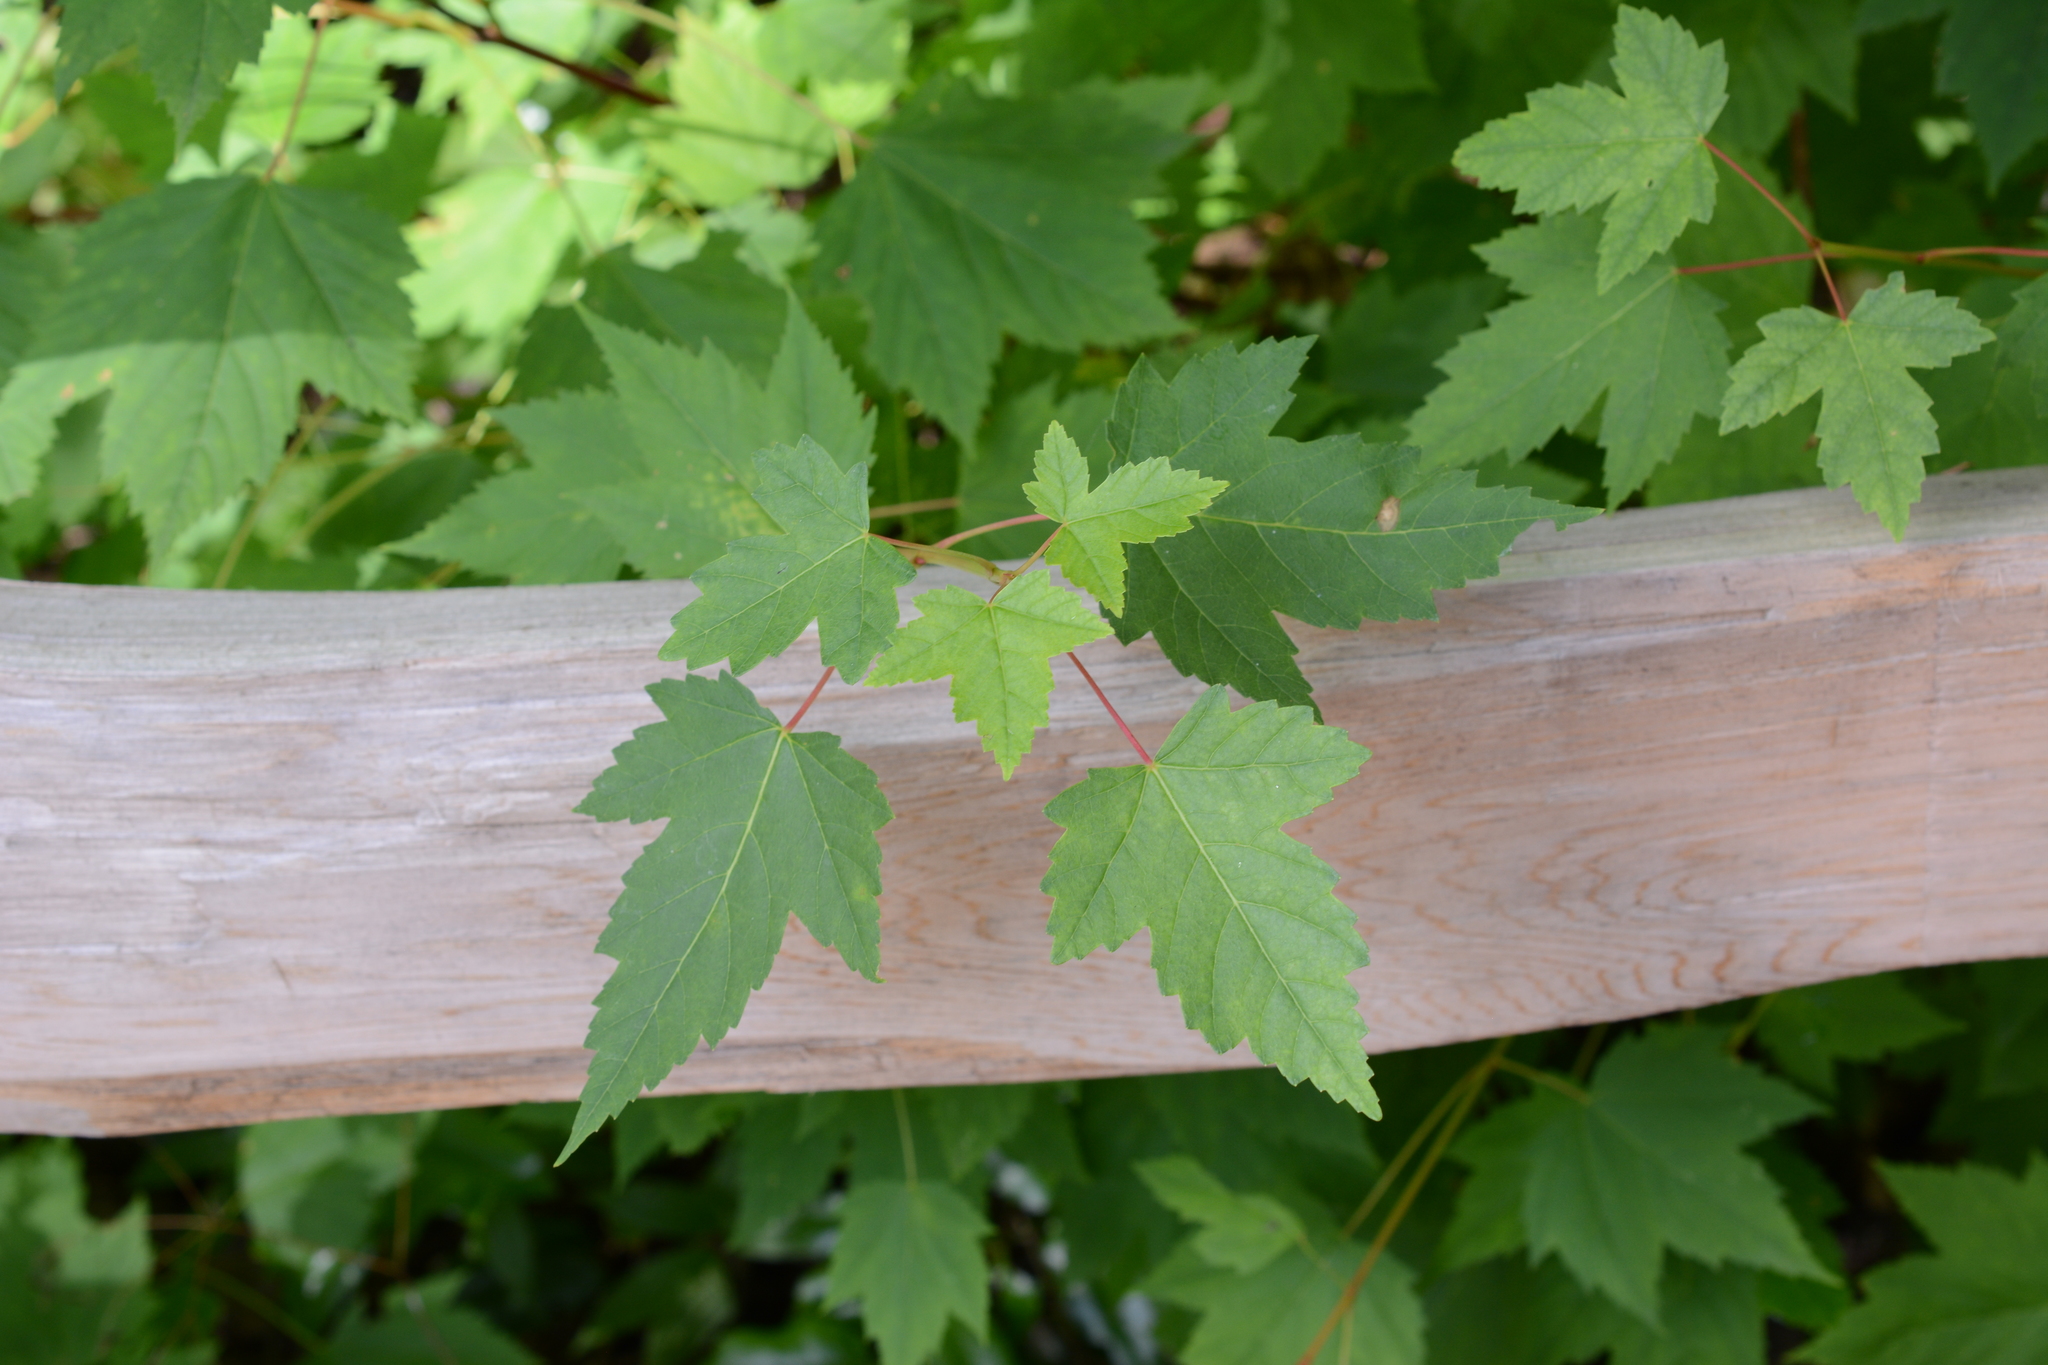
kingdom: Plantae
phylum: Tracheophyta
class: Magnoliopsida
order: Sapindales
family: Sapindaceae
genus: Acer
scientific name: Acer glabrum
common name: Rocky mountain maple
